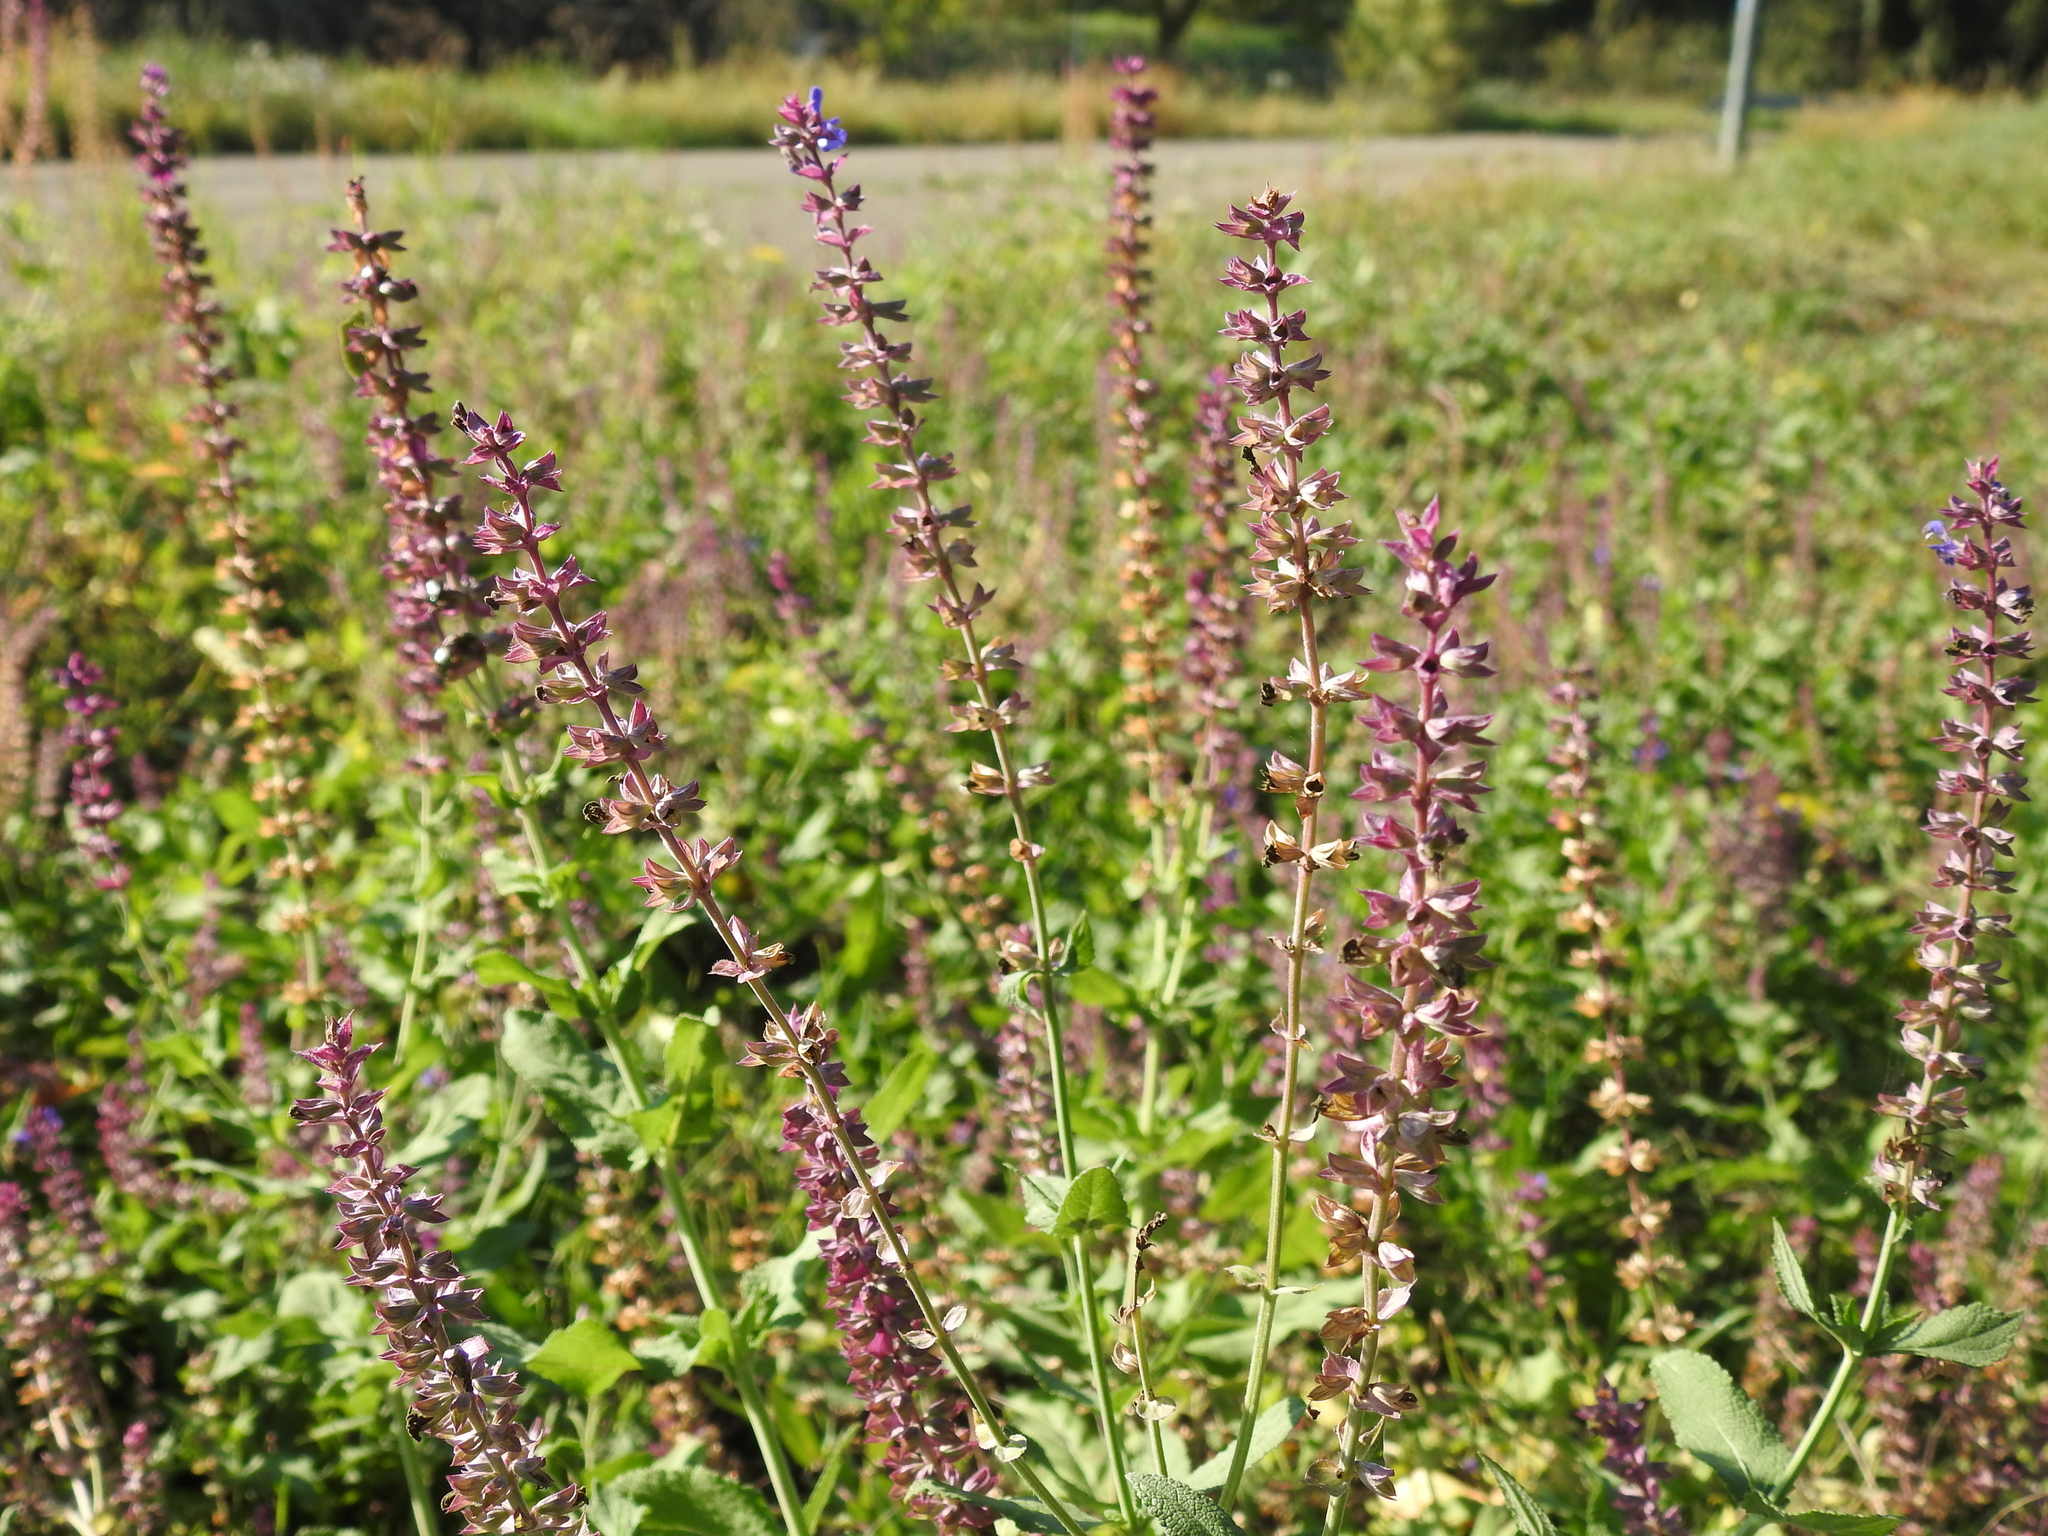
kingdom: Plantae
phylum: Tracheophyta
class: Magnoliopsida
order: Lamiales
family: Lamiaceae
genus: Salvia
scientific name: Salvia nemorosa
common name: Balkan clary
